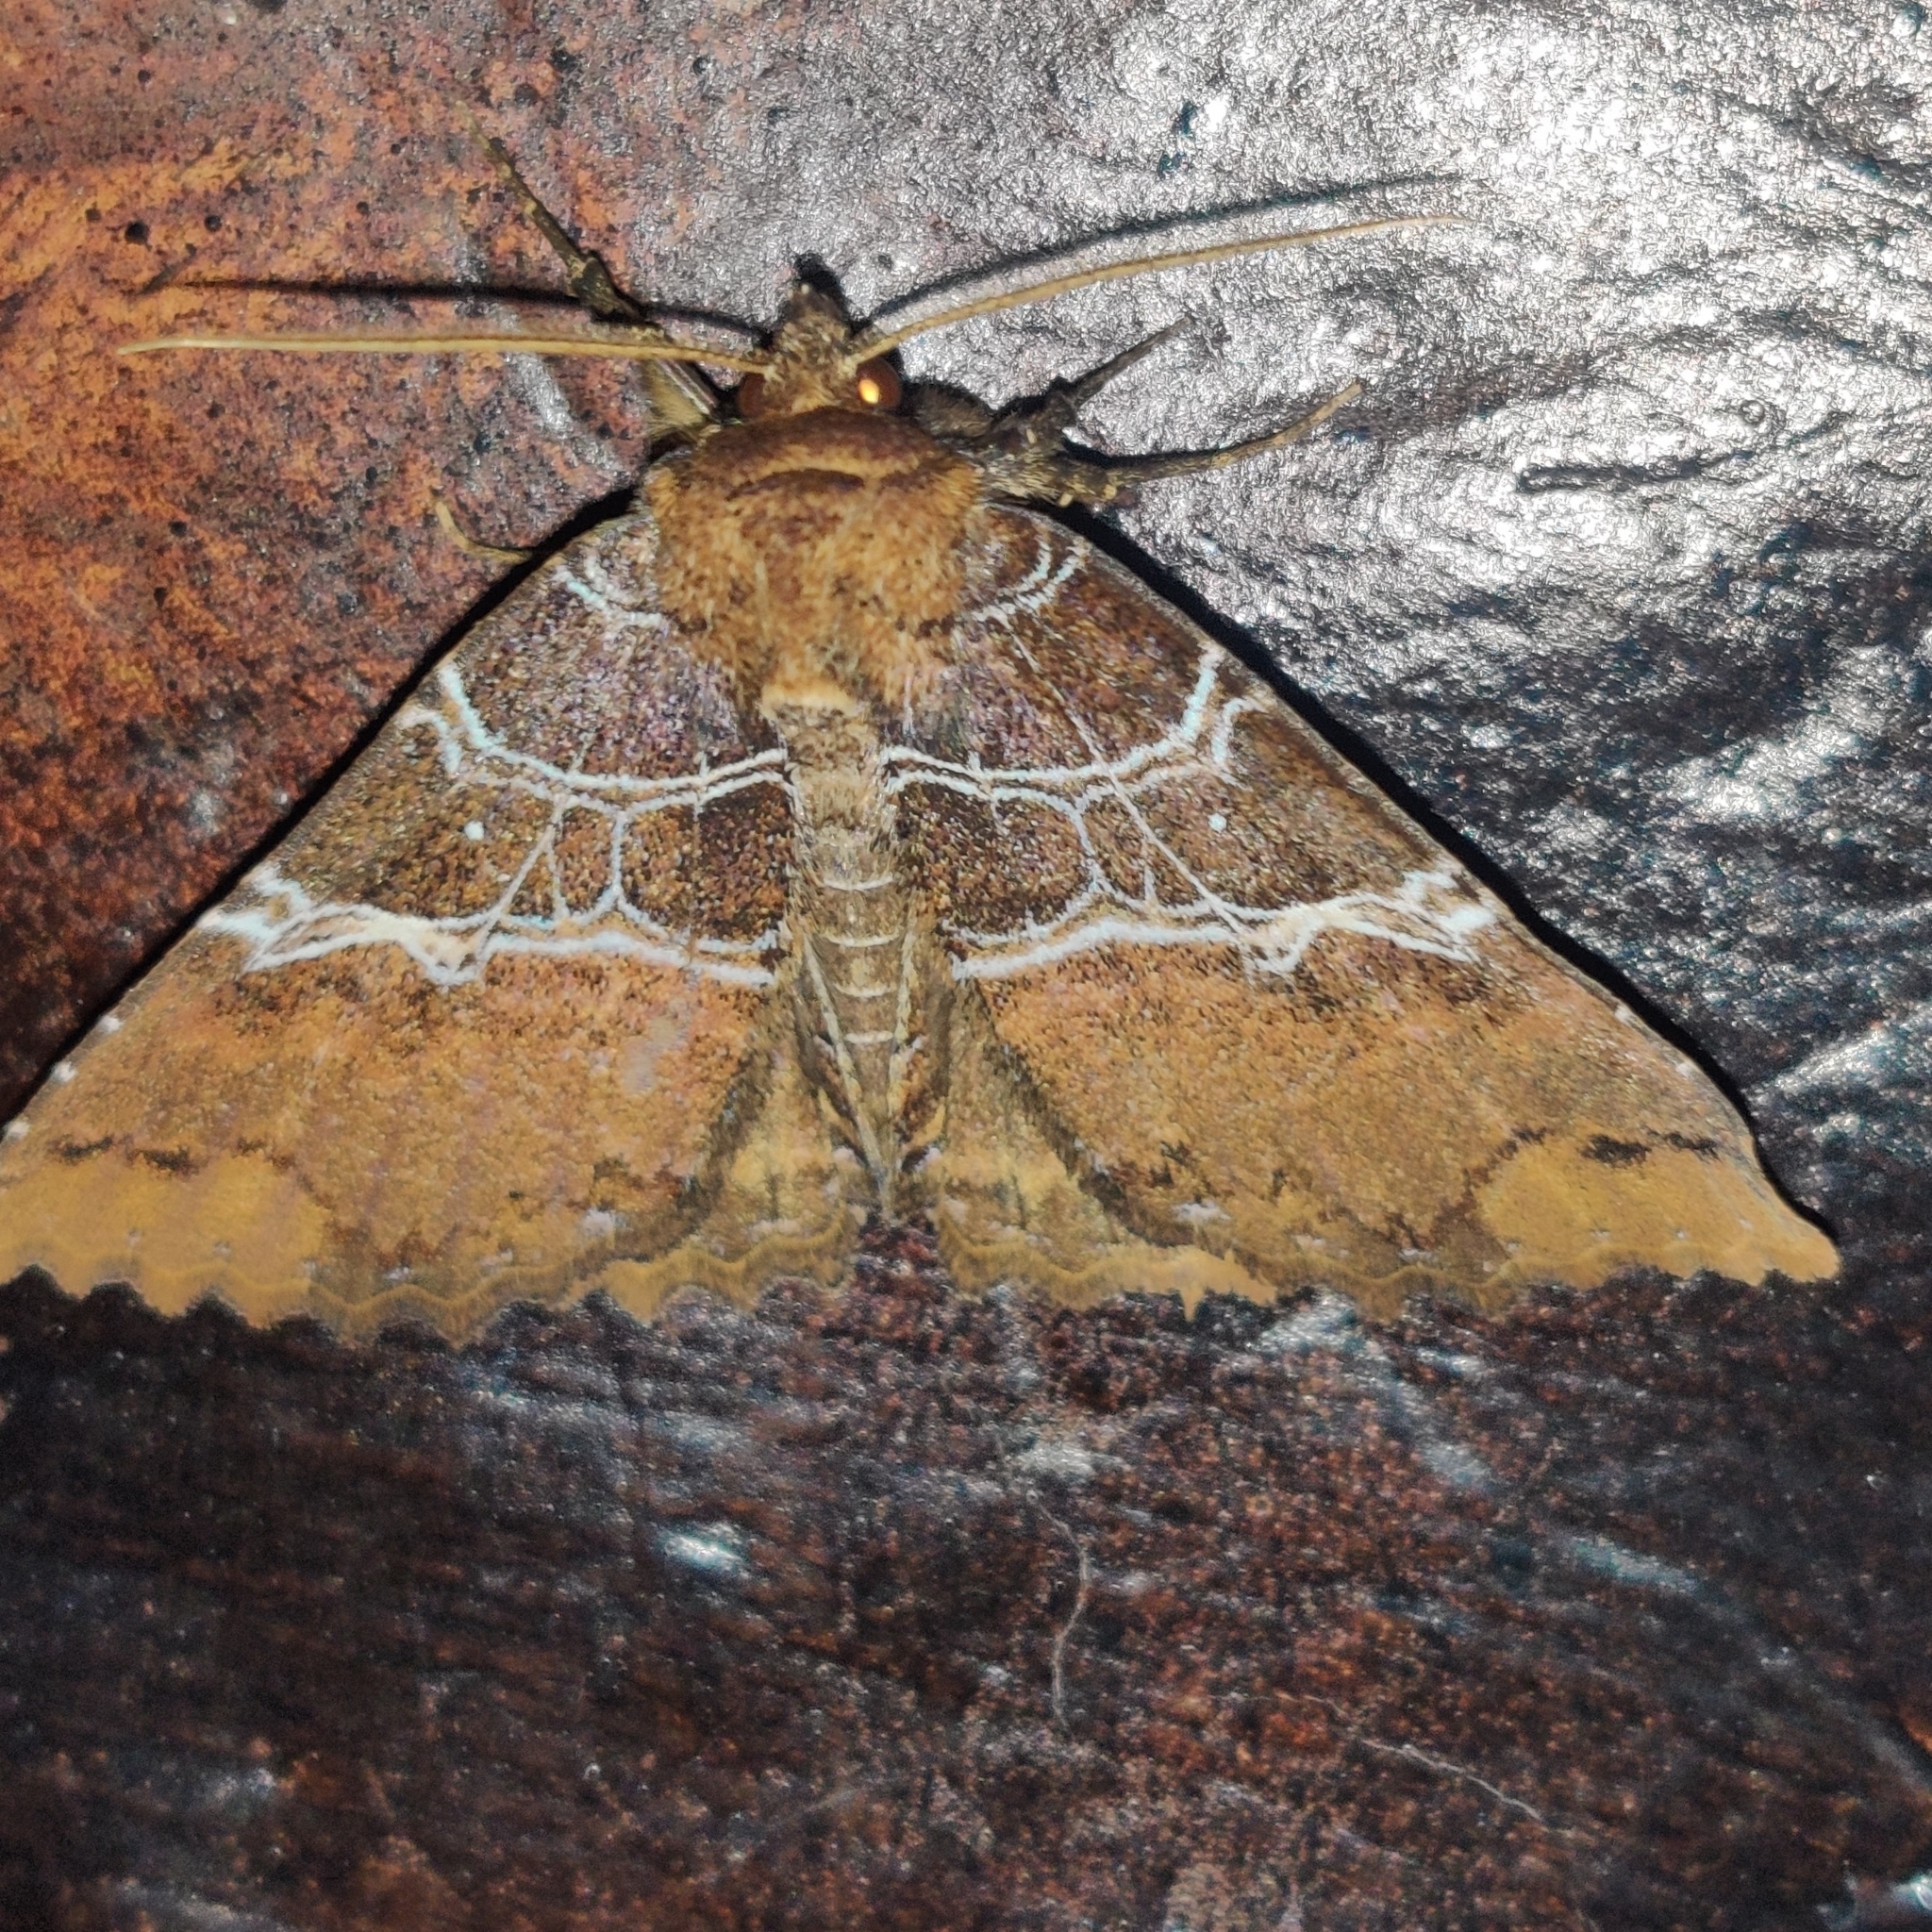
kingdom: Animalia
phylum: Arthropoda
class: Insecta
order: Lepidoptera
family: Erebidae
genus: Sypnoides
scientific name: Sypnoides fumosa
